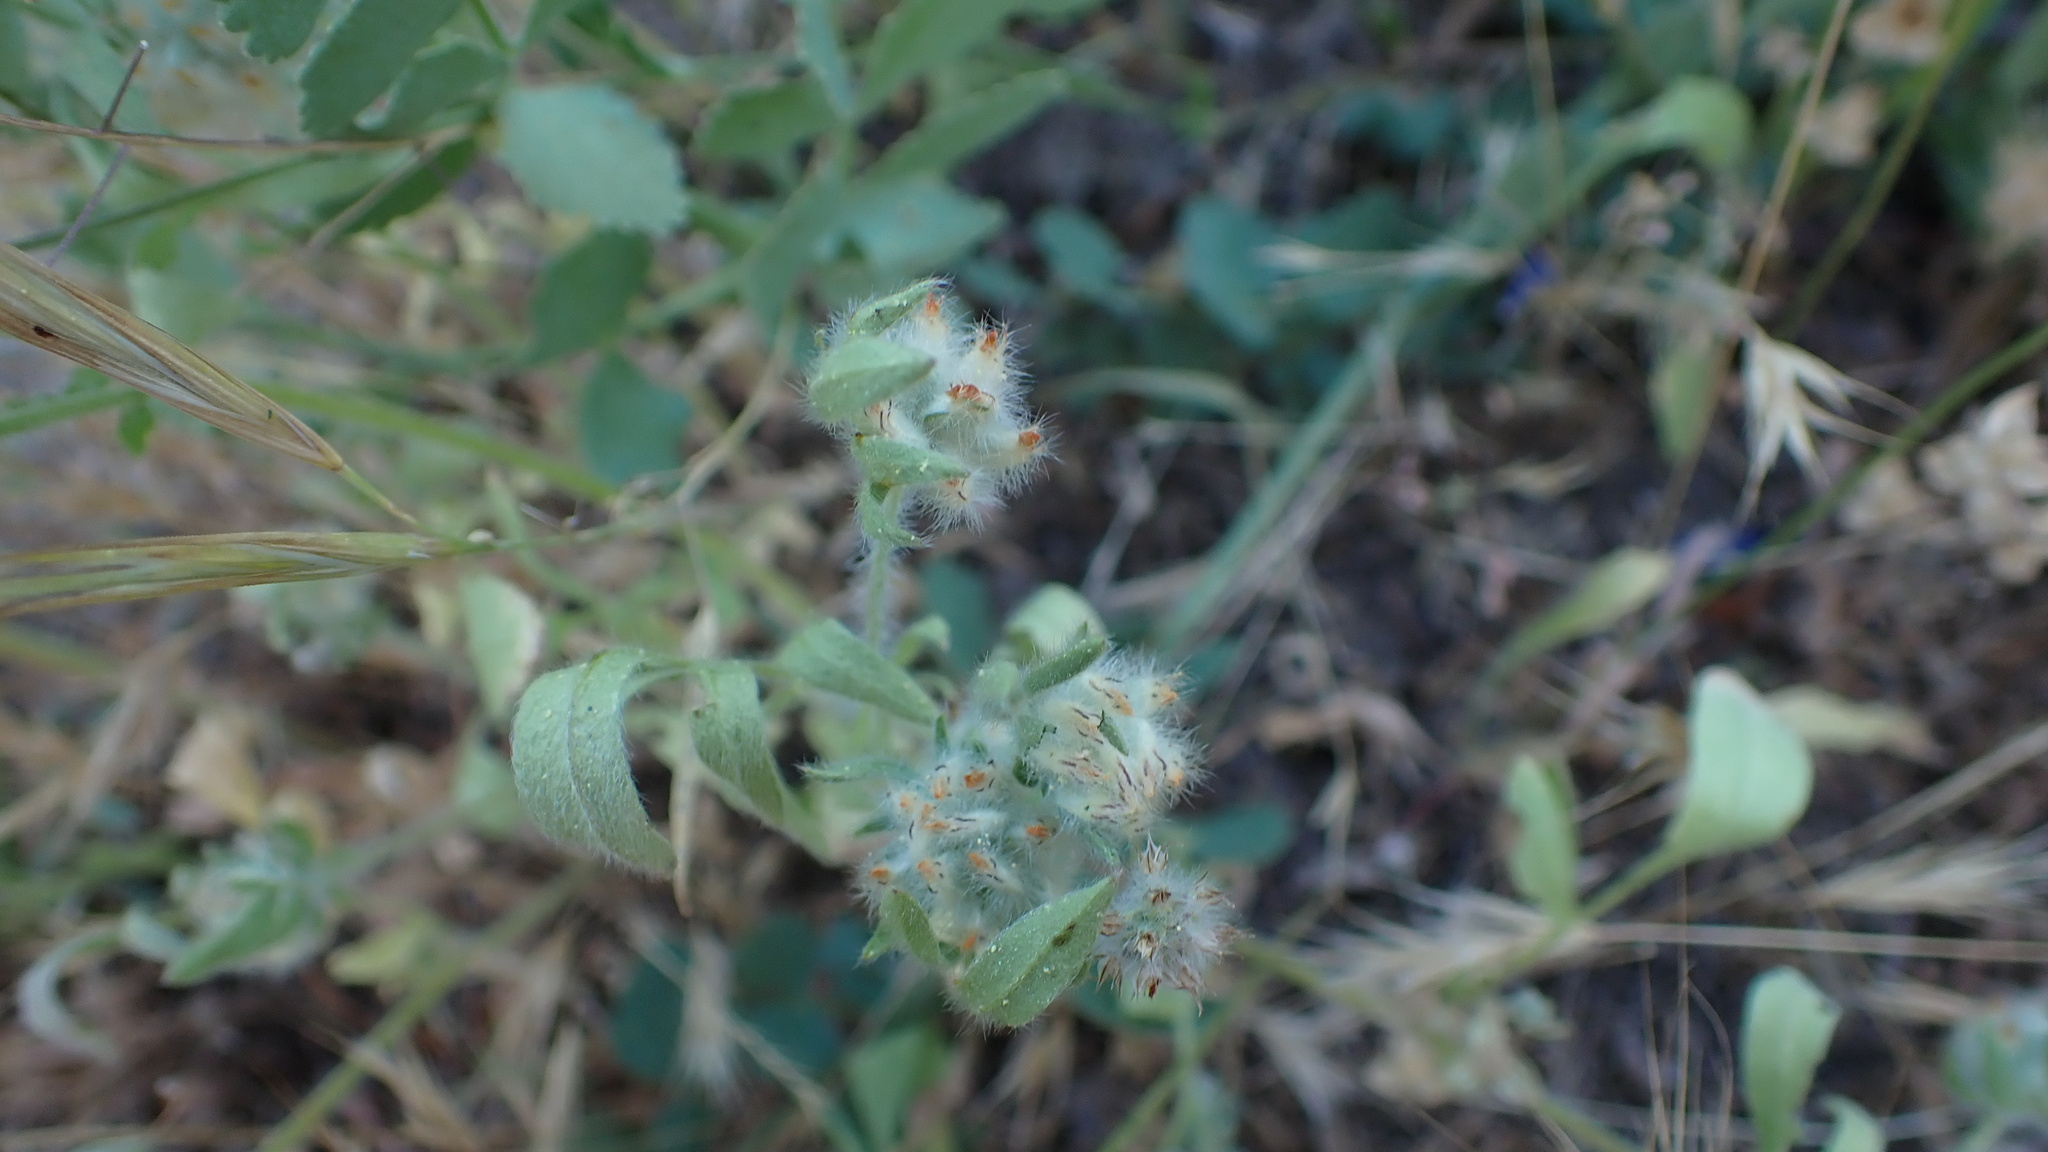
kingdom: Plantae
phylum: Tracheophyta
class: Magnoliopsida
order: Fabales
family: Fabaceae
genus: Anthyllis
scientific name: Anthyllis cornicina
